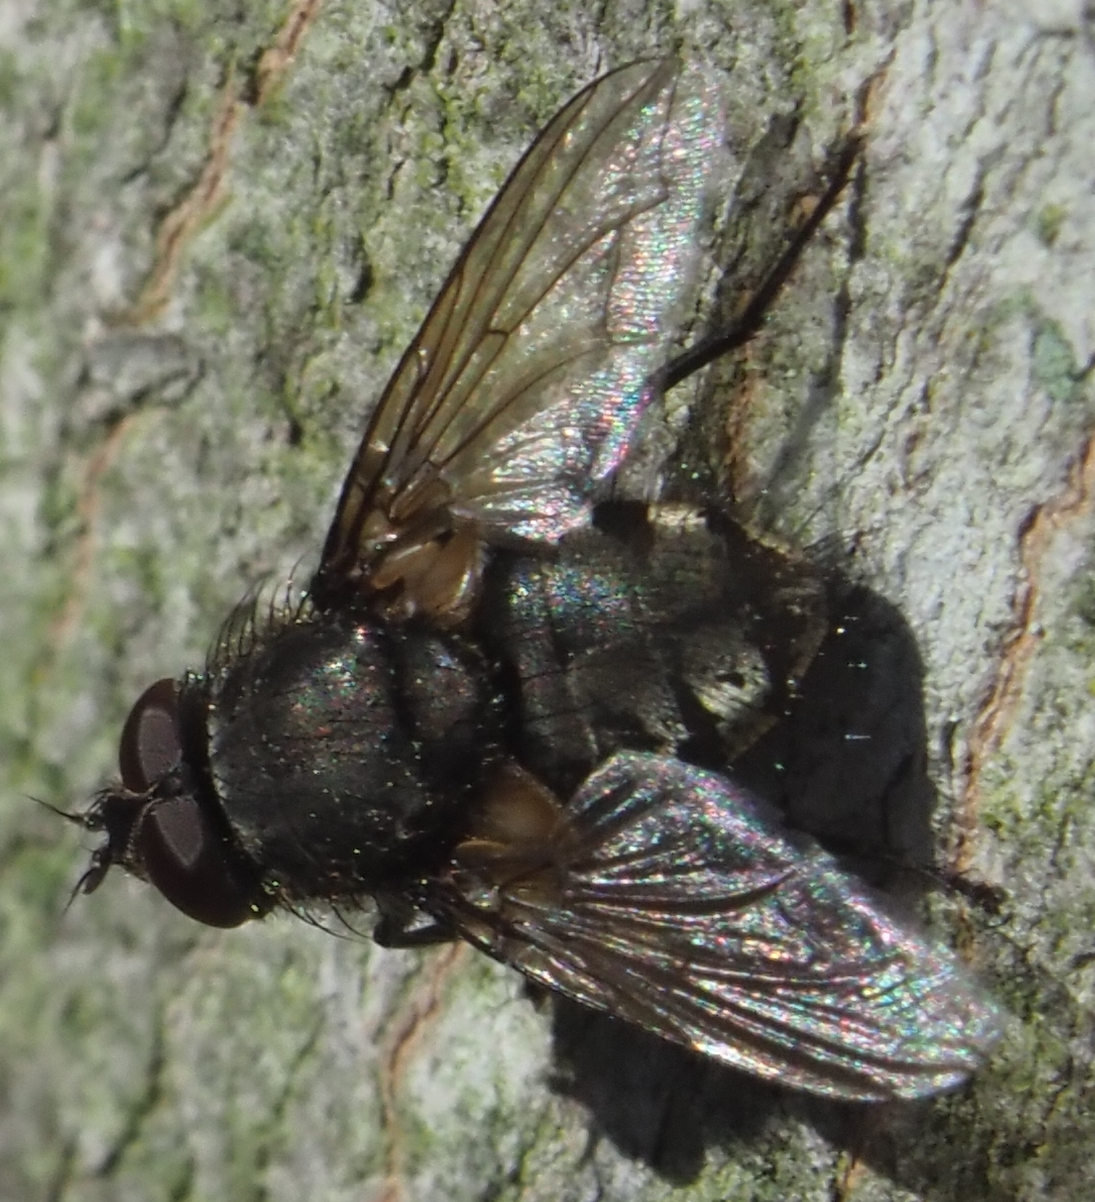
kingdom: Animalia
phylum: Arthropoda
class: Insecta
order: Diptera
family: Polleniidae
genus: Pollenia
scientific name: Pollenia
